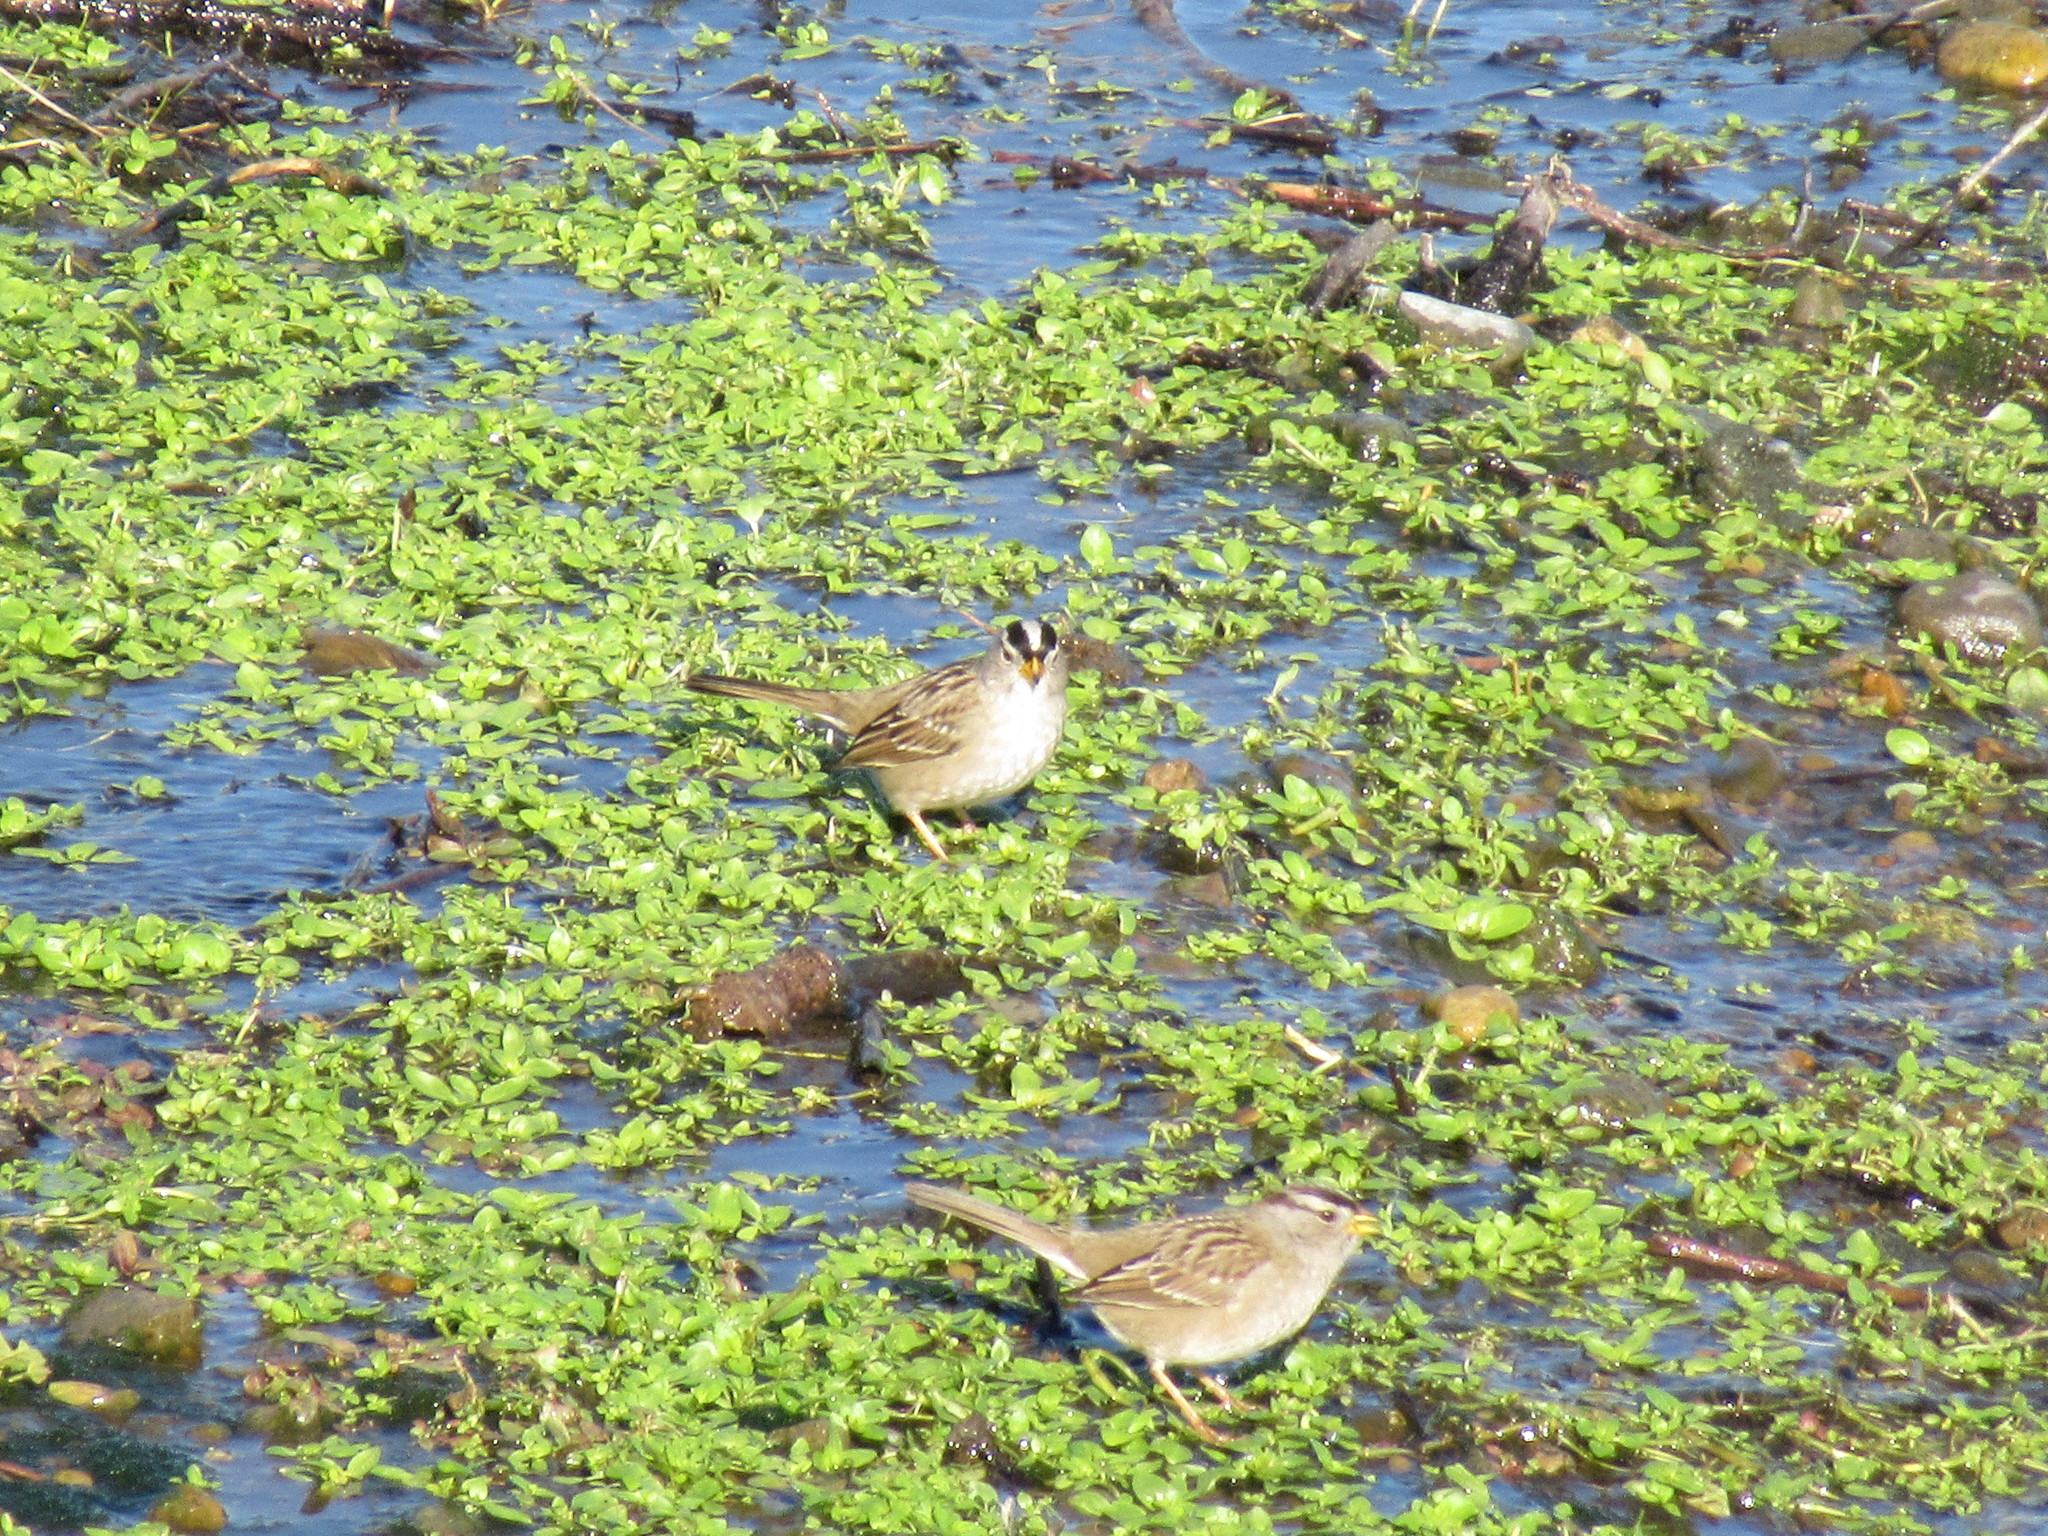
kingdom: Animalia
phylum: Chordata
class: Aves
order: Passeriformes
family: Passerellidae
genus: Zonotrichia
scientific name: Zonotrichia leucophrys
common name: White-crowned sparrow
